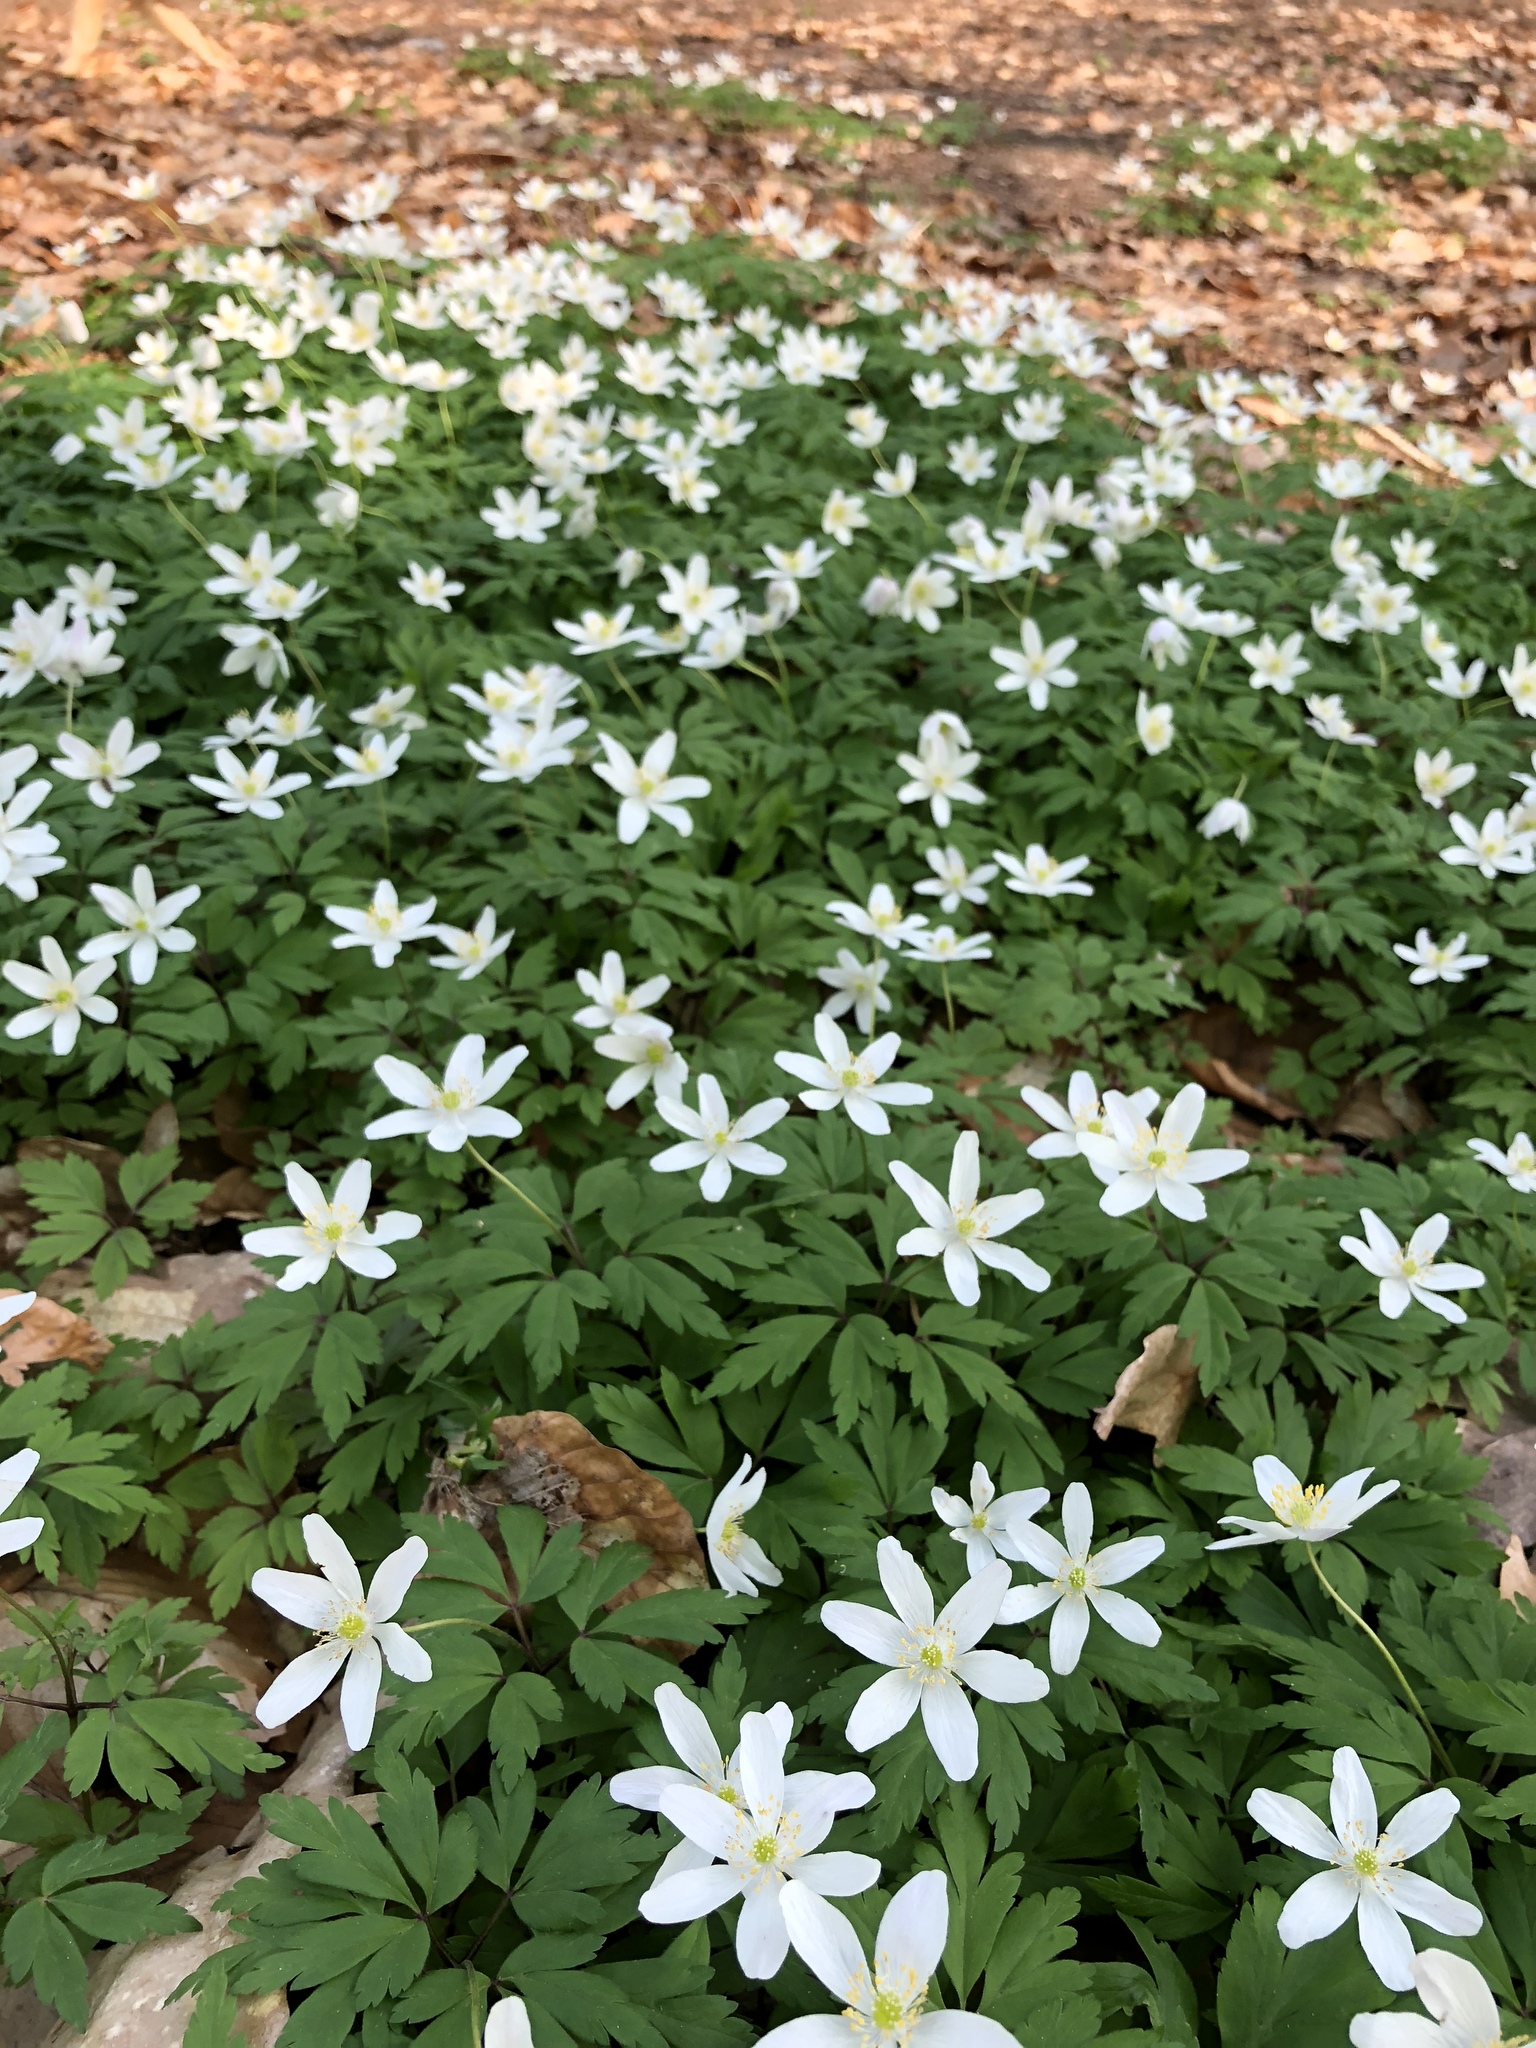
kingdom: Plantae
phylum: Tracheophyta
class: Magnoliopsida
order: Ranunculales
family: Ranunculaceae
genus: Anemone
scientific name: Anemone nemorosa
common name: Wood anemone
